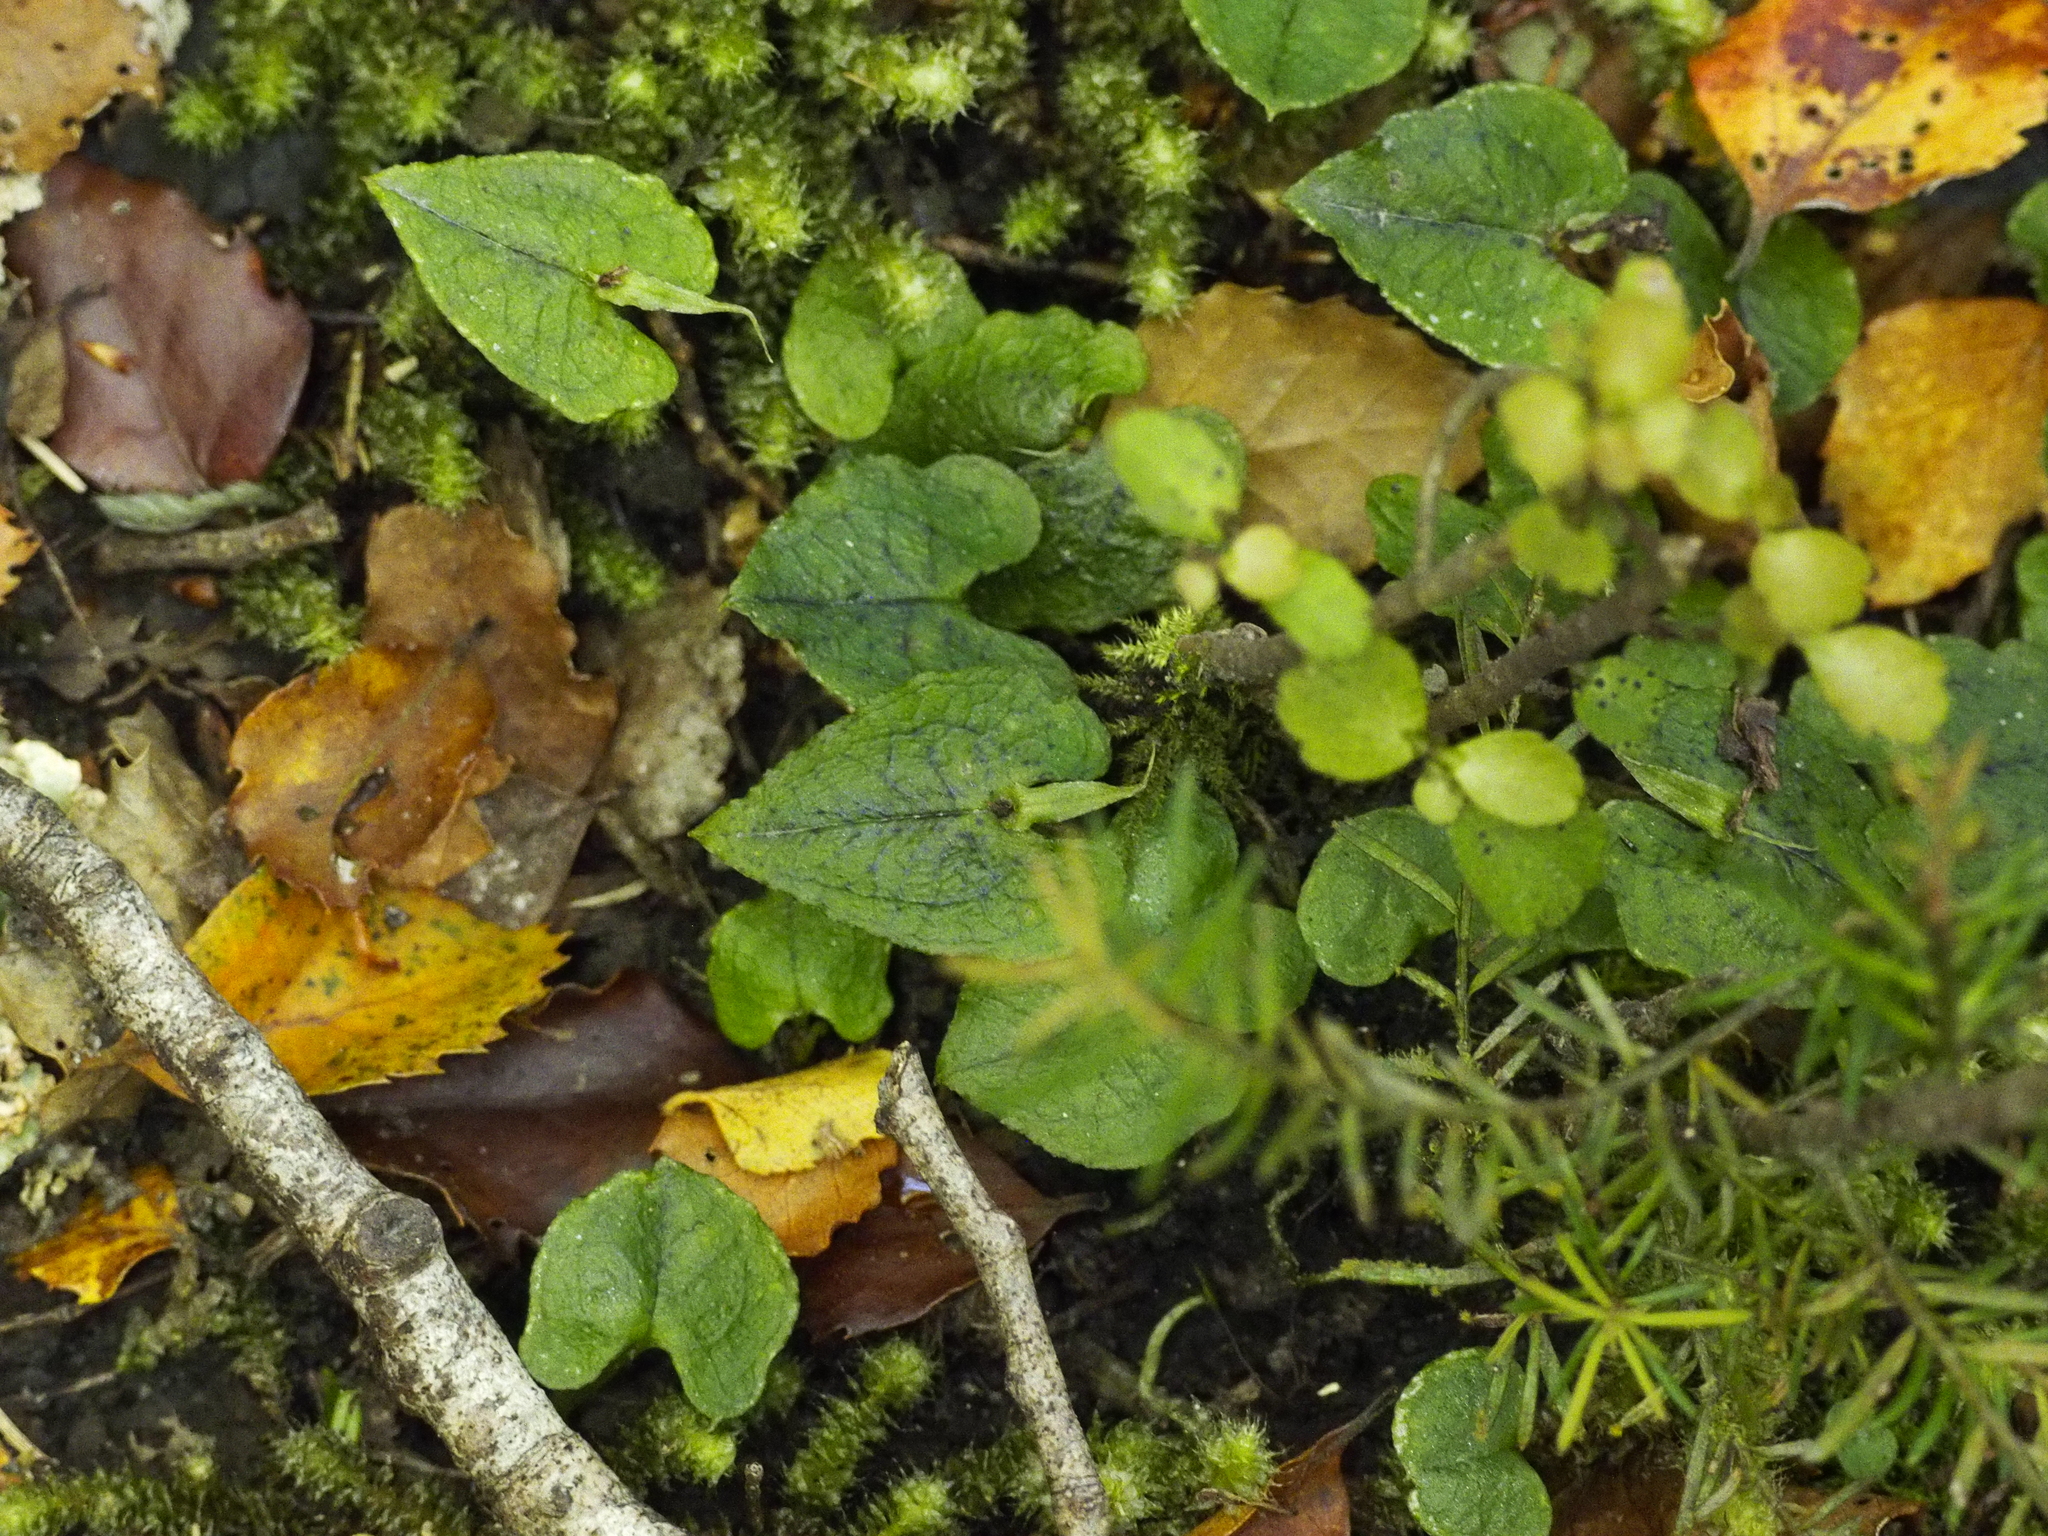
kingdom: Plantae
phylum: Tracheophyta
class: Liliopsida
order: Asparagales
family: Orchidaceae
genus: Corybas
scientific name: Corybas acuminatus
